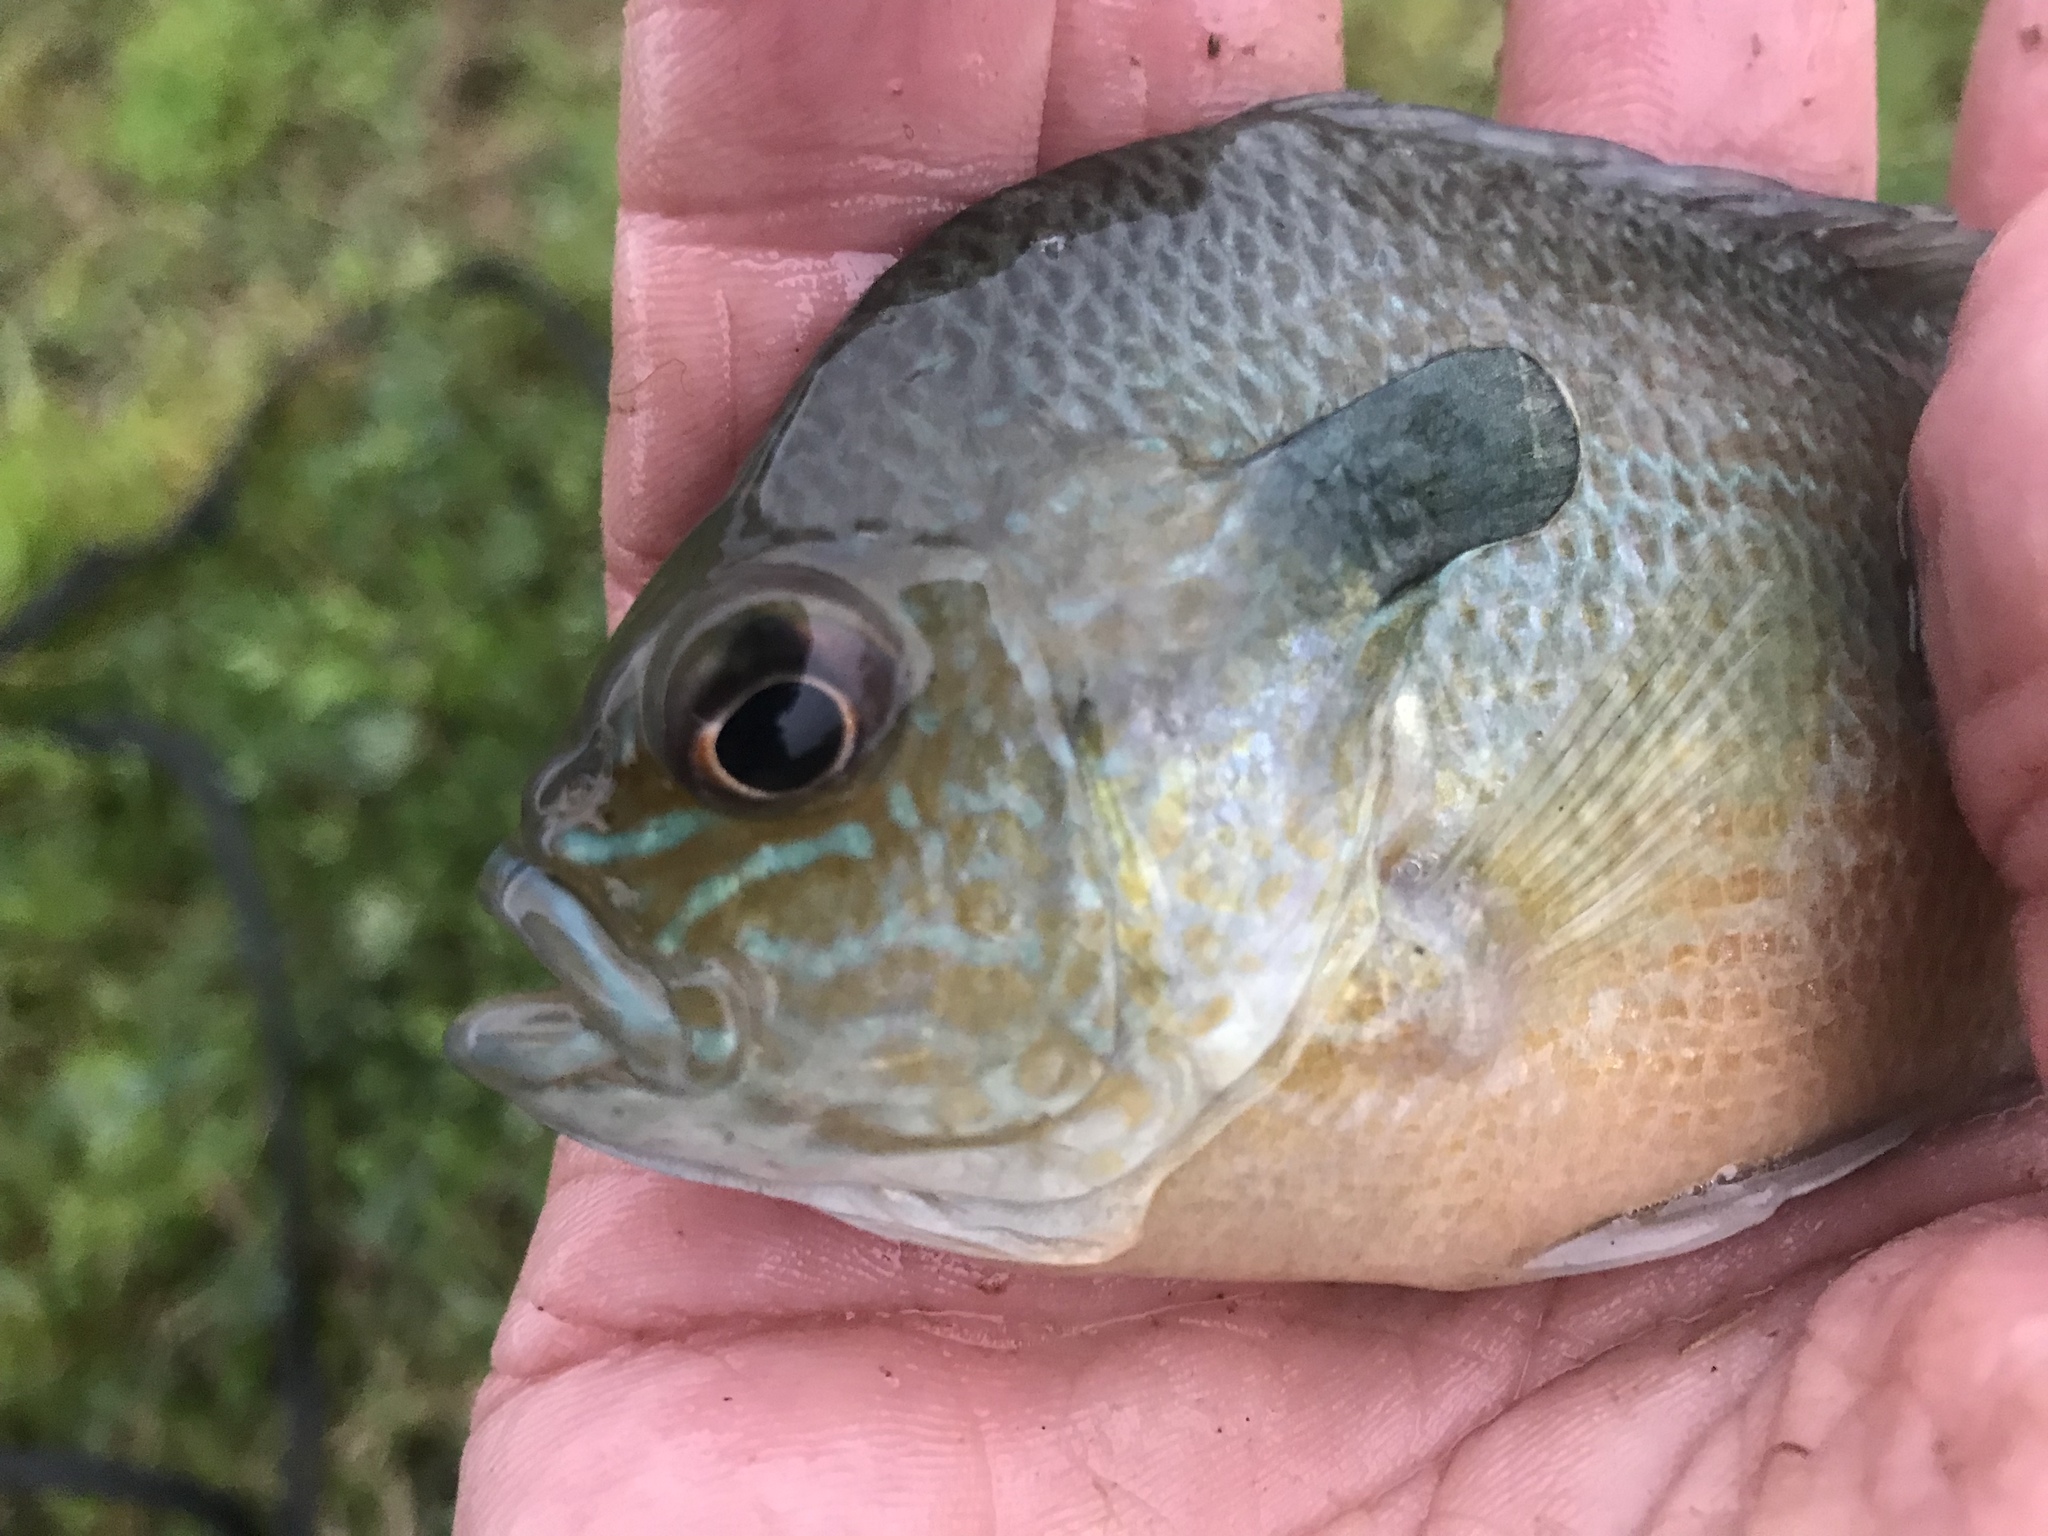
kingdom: Animalia
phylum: Chordata
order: Perciformes
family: Centrarchidae
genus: Lepomis
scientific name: Lepomis megalotis
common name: Longear sunfish
